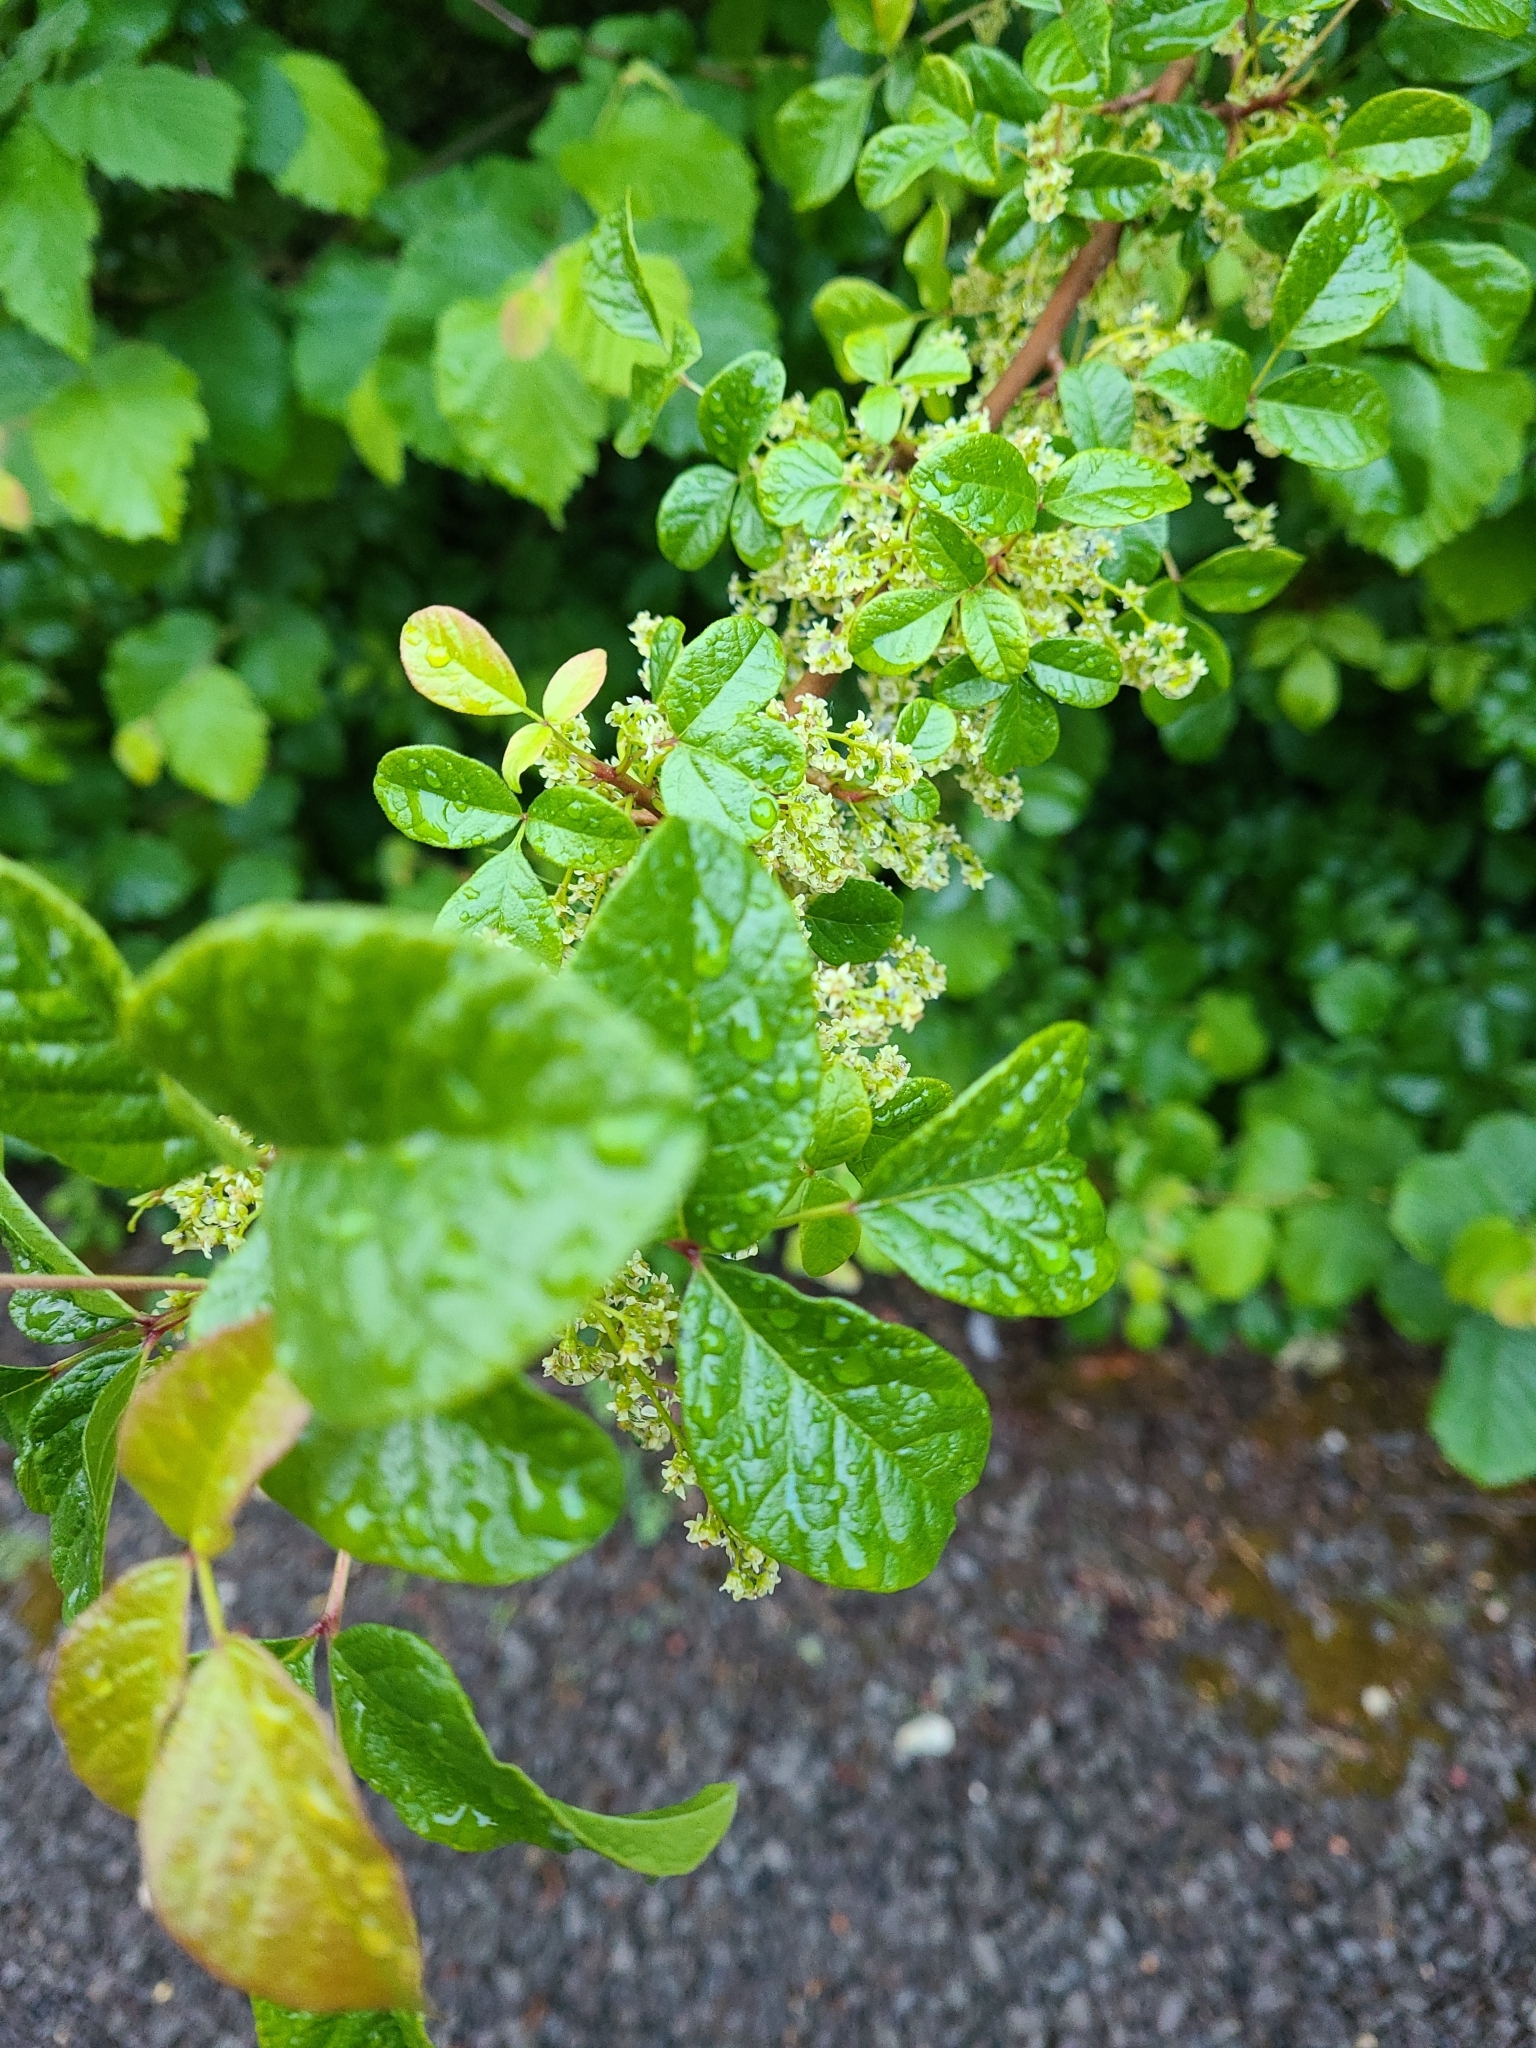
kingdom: Plantae
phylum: Tracheophyta
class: Magnoliopsida
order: Sapindales
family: Anacardiaceae
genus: Toxicodendron
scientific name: Toxicodendron diversilobum
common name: Pacific poison-oak
